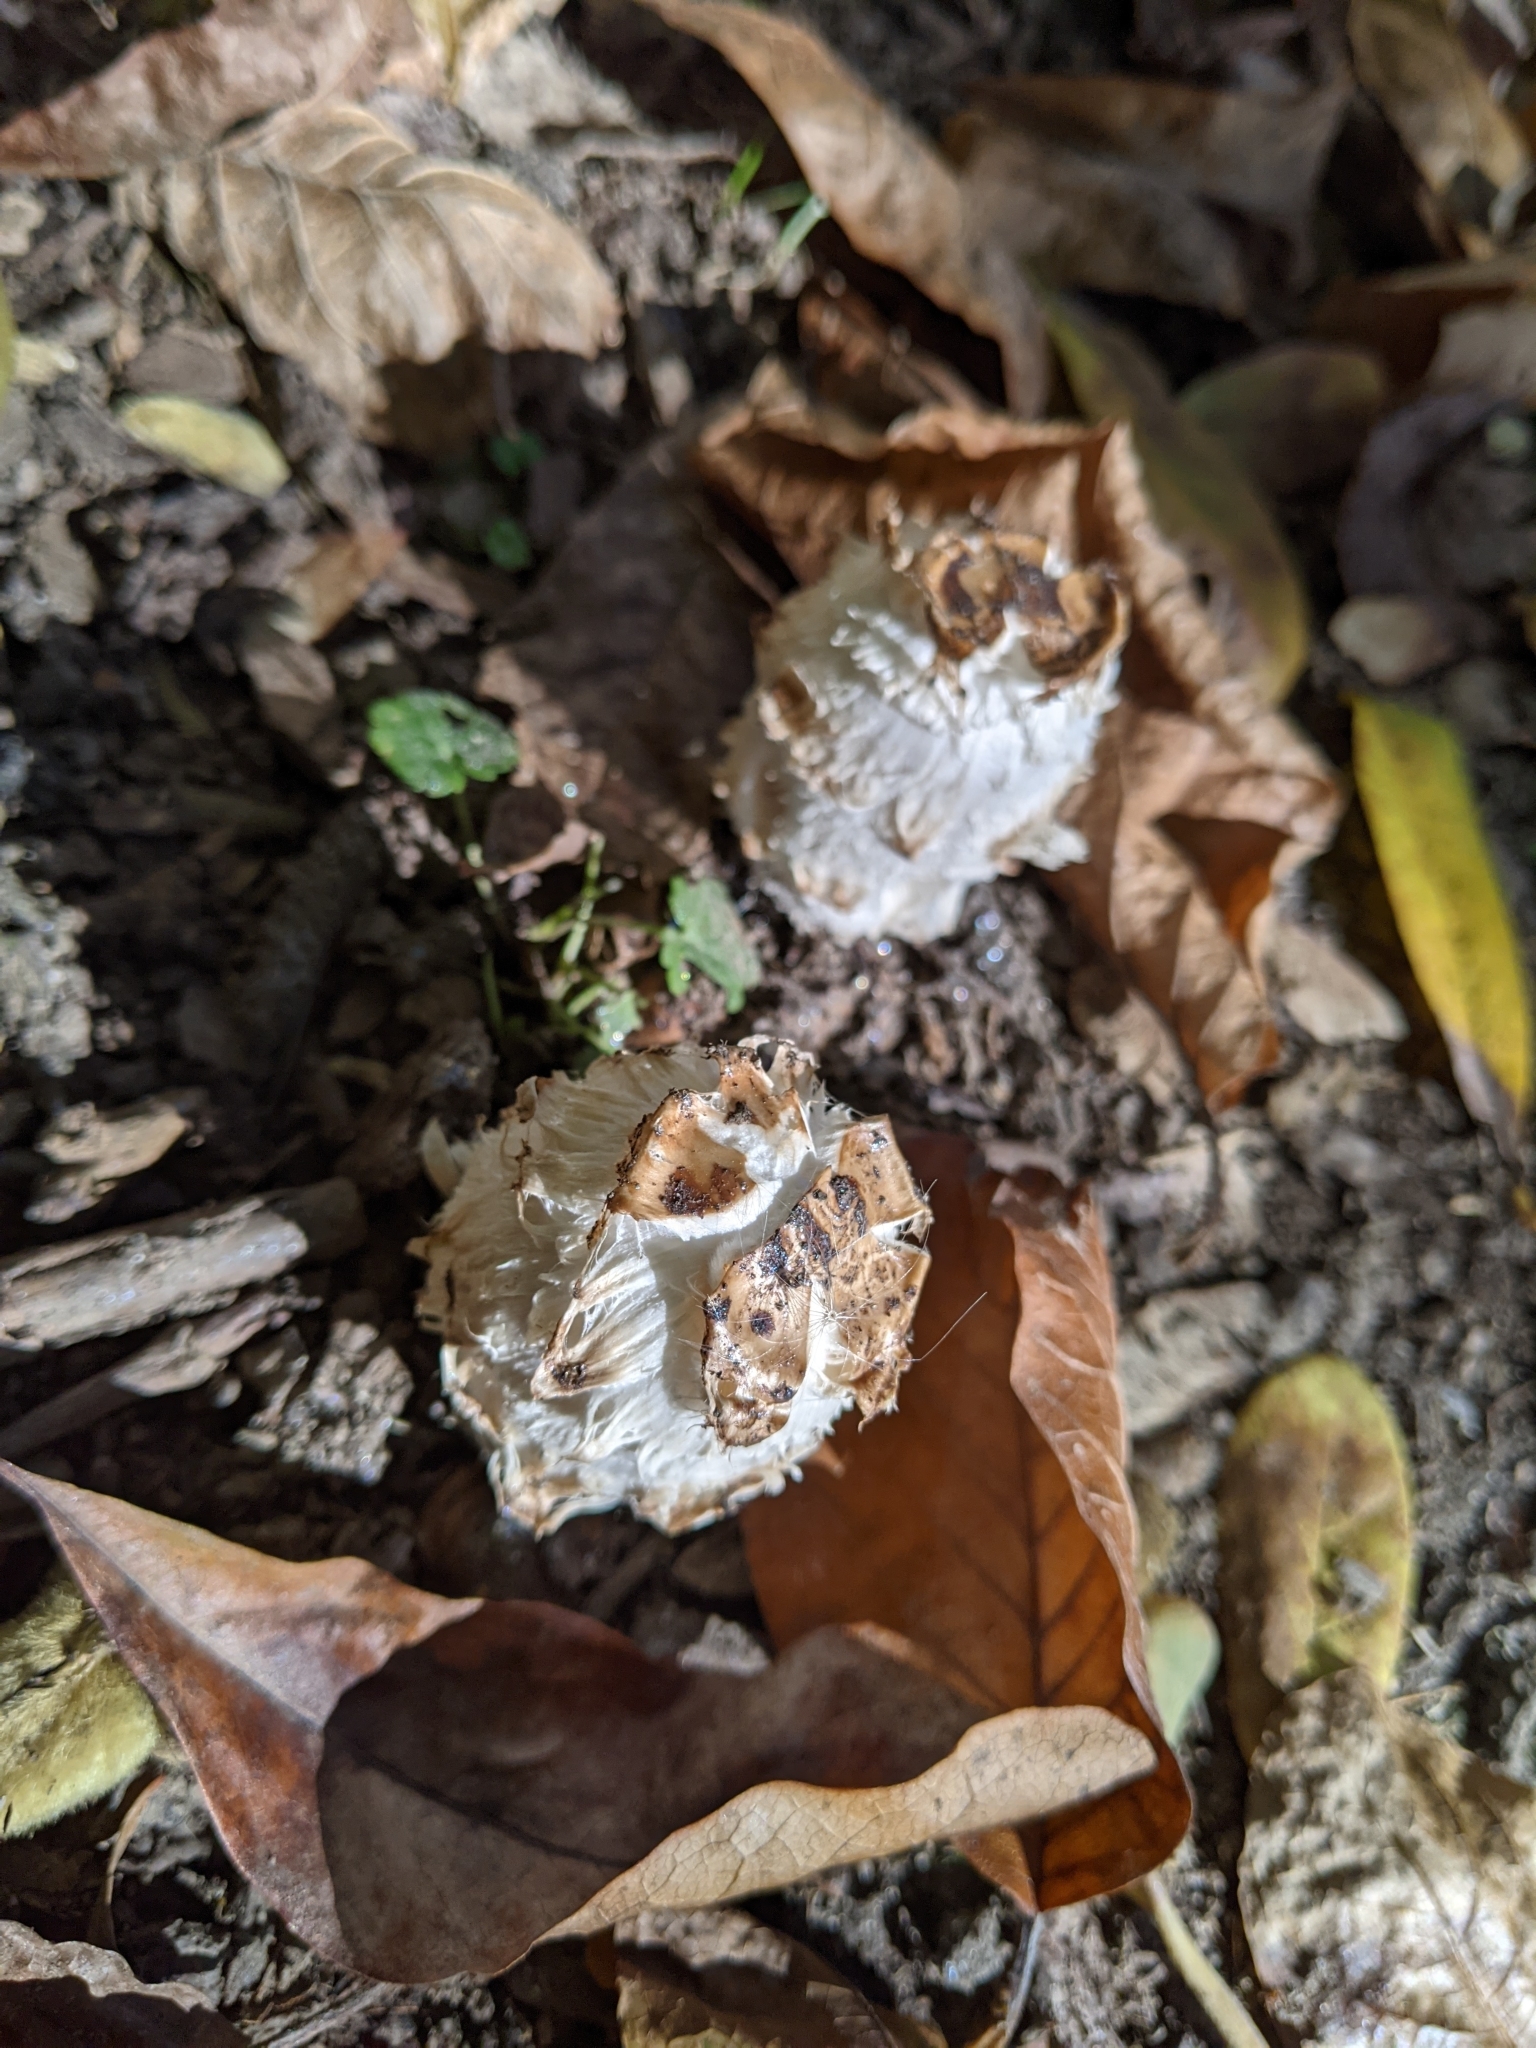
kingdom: Fungi
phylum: Basidiomycota
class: Agaricomycetes
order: Agaricales
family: Agaricaceae
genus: Coprinus
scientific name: Coprinus comatus
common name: Lawyer's wig
